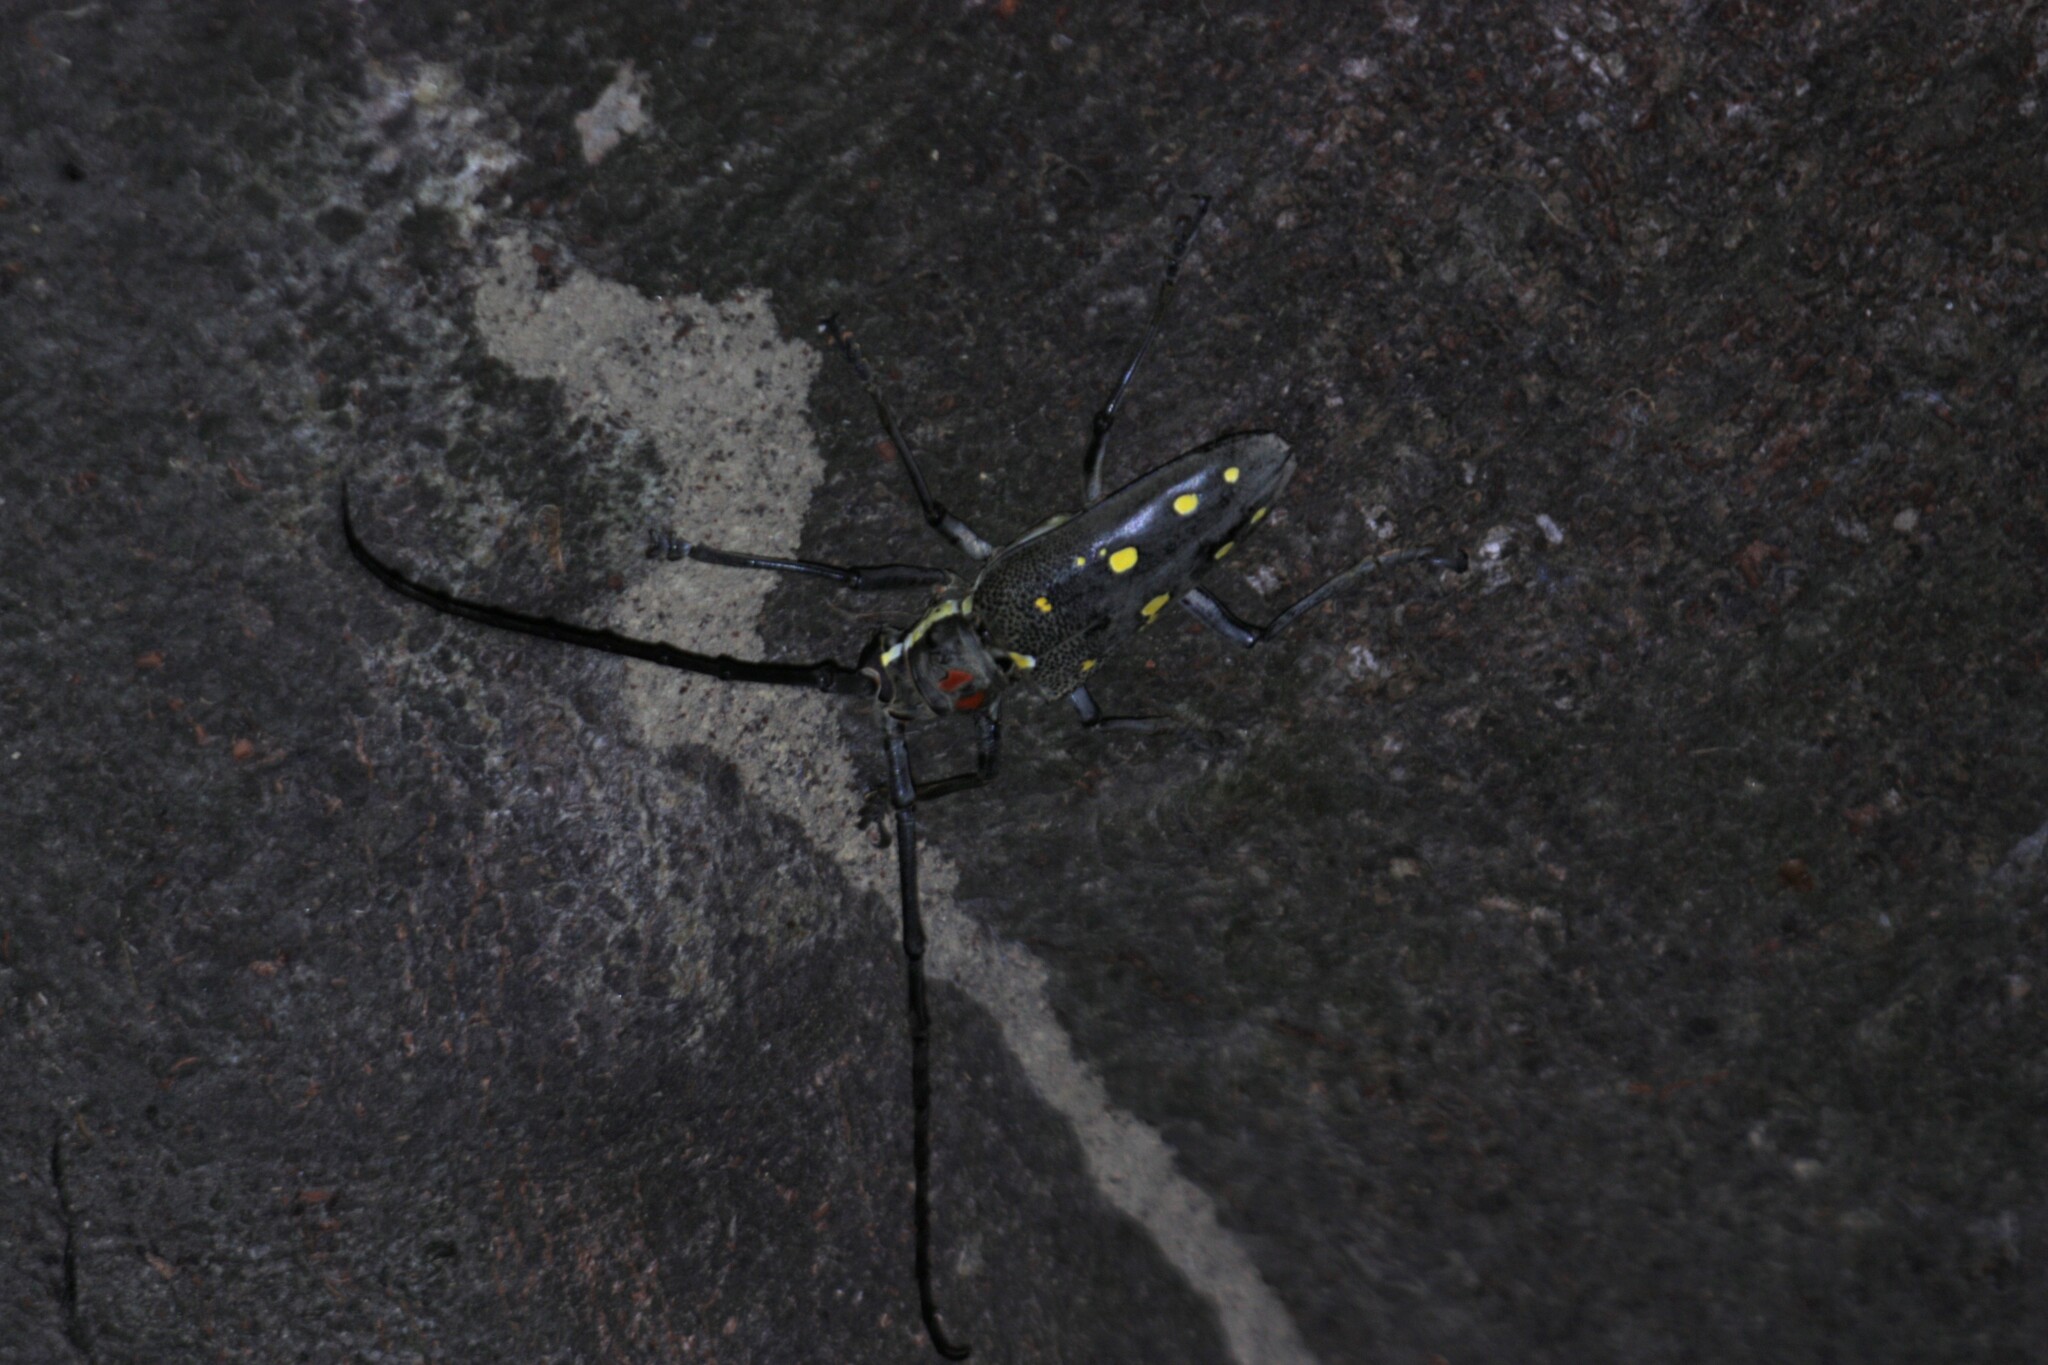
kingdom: Animalia
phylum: Arthropoda
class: Insecta
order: Coleoptera
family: Cerambycidae
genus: Batocera
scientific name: Batocera rubus
